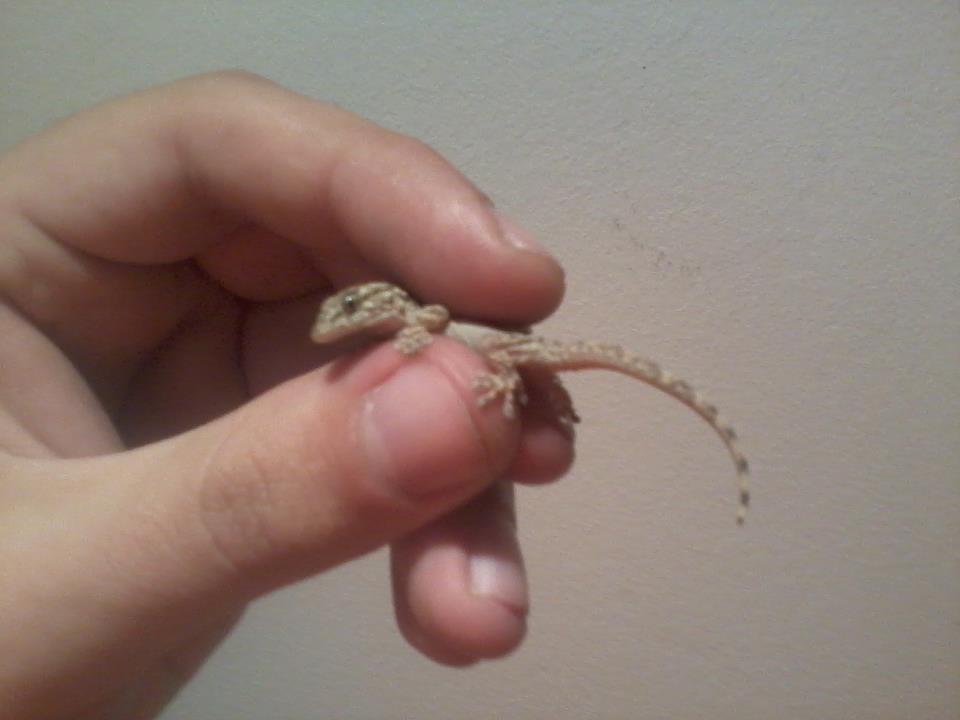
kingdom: Animalia
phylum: Chordata
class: Squamata
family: Phyllodactylidae
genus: Tarentola
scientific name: Tarentola mauritanica
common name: Moorish gecko
